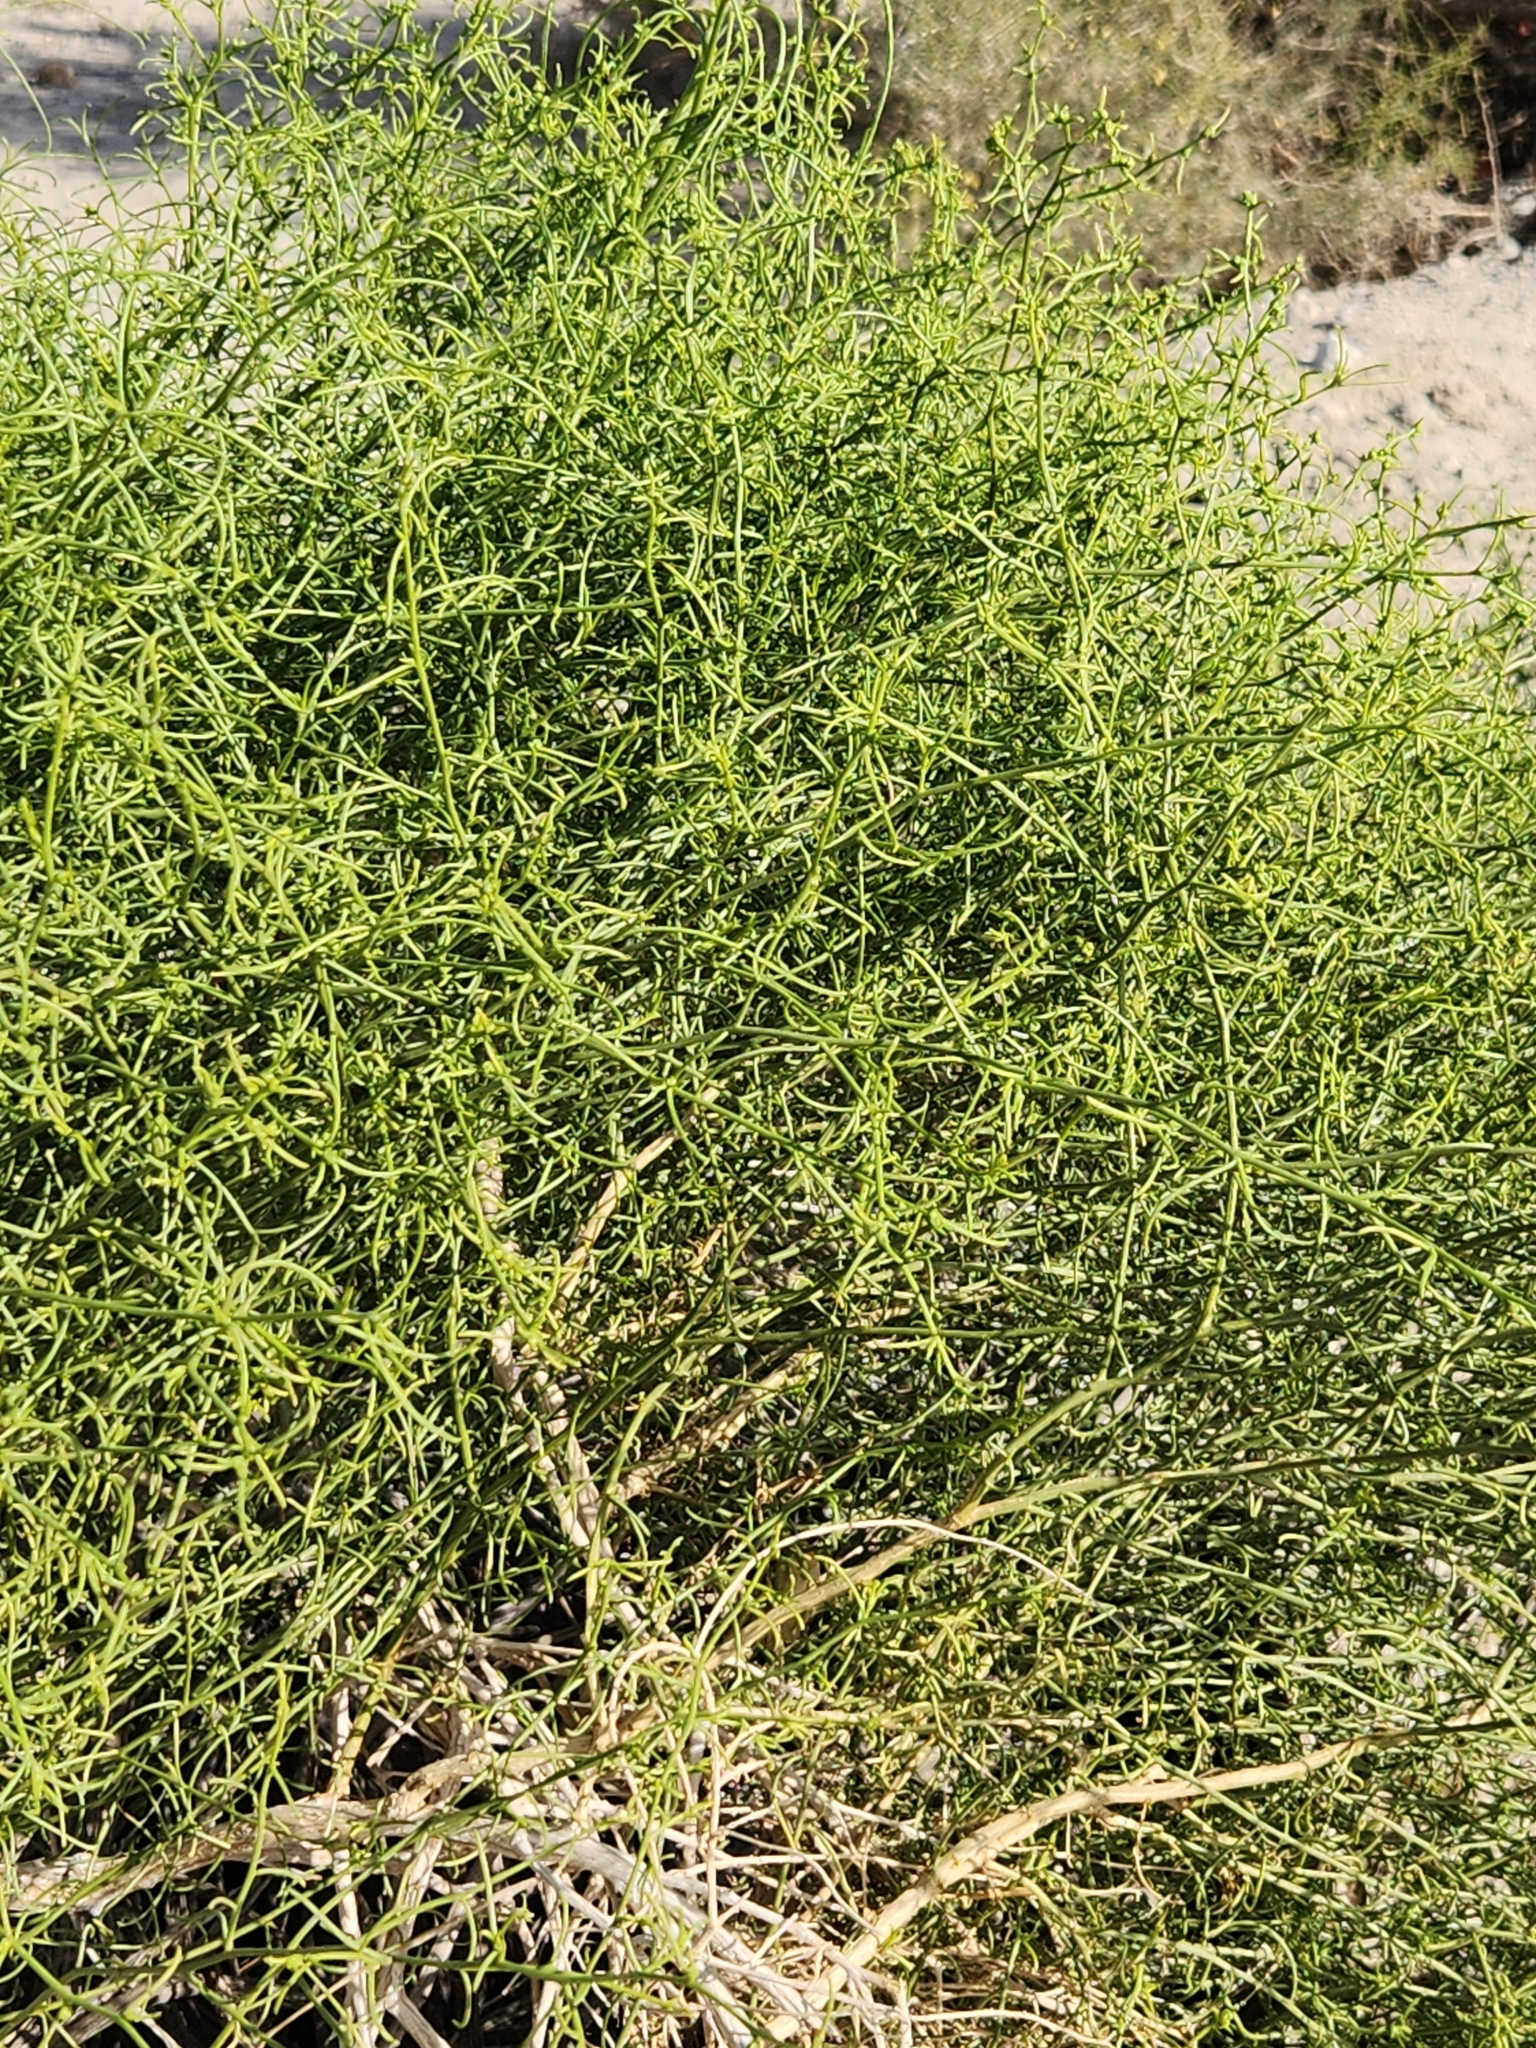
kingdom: Plantae
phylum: Tracheophyta
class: Magnoliopsida
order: Asterales
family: Asteraceae
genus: Ambrosia
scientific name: Ambrosia salsola
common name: Burrobrush
